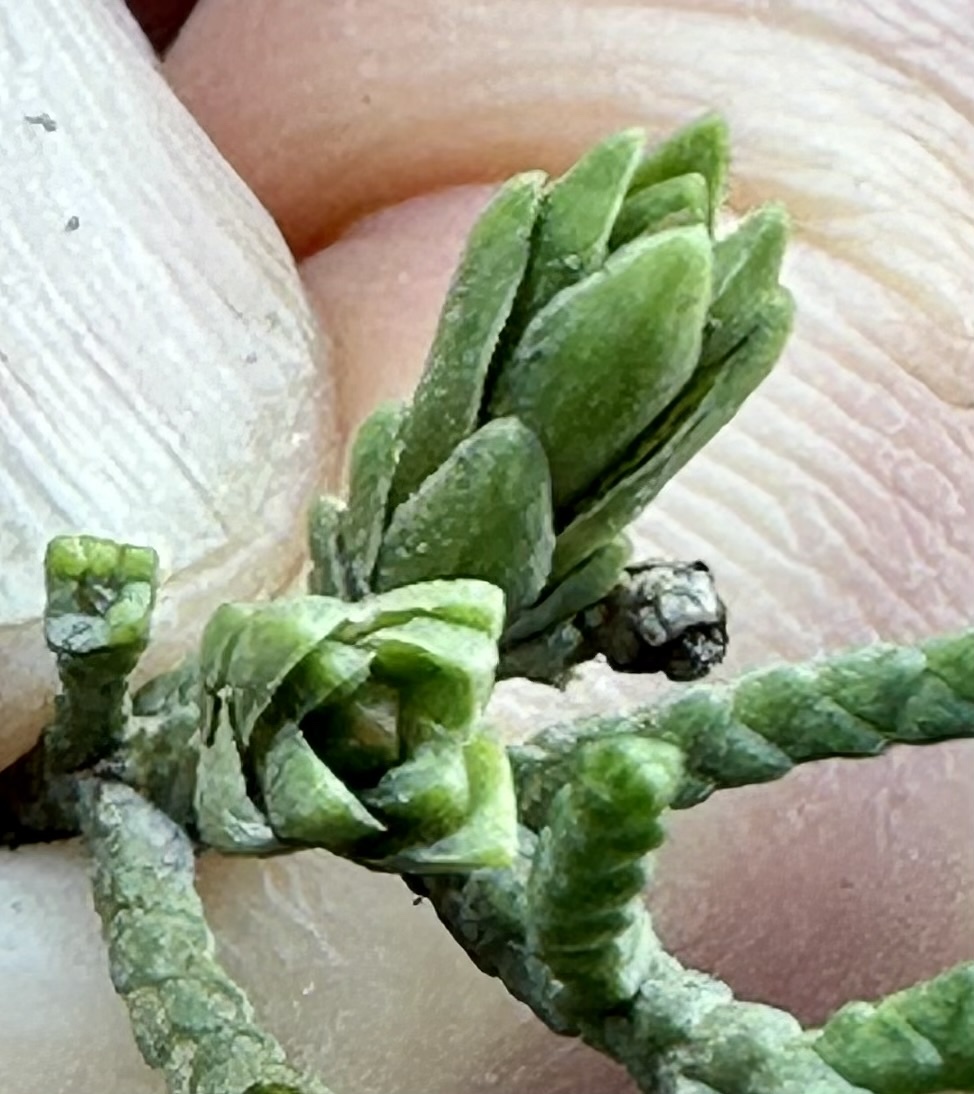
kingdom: Animalia
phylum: Arthropoda
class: Insecta
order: Diptera
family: Cecidomyiidae
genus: Oligotrophus
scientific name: Oligotrophus cupressi
